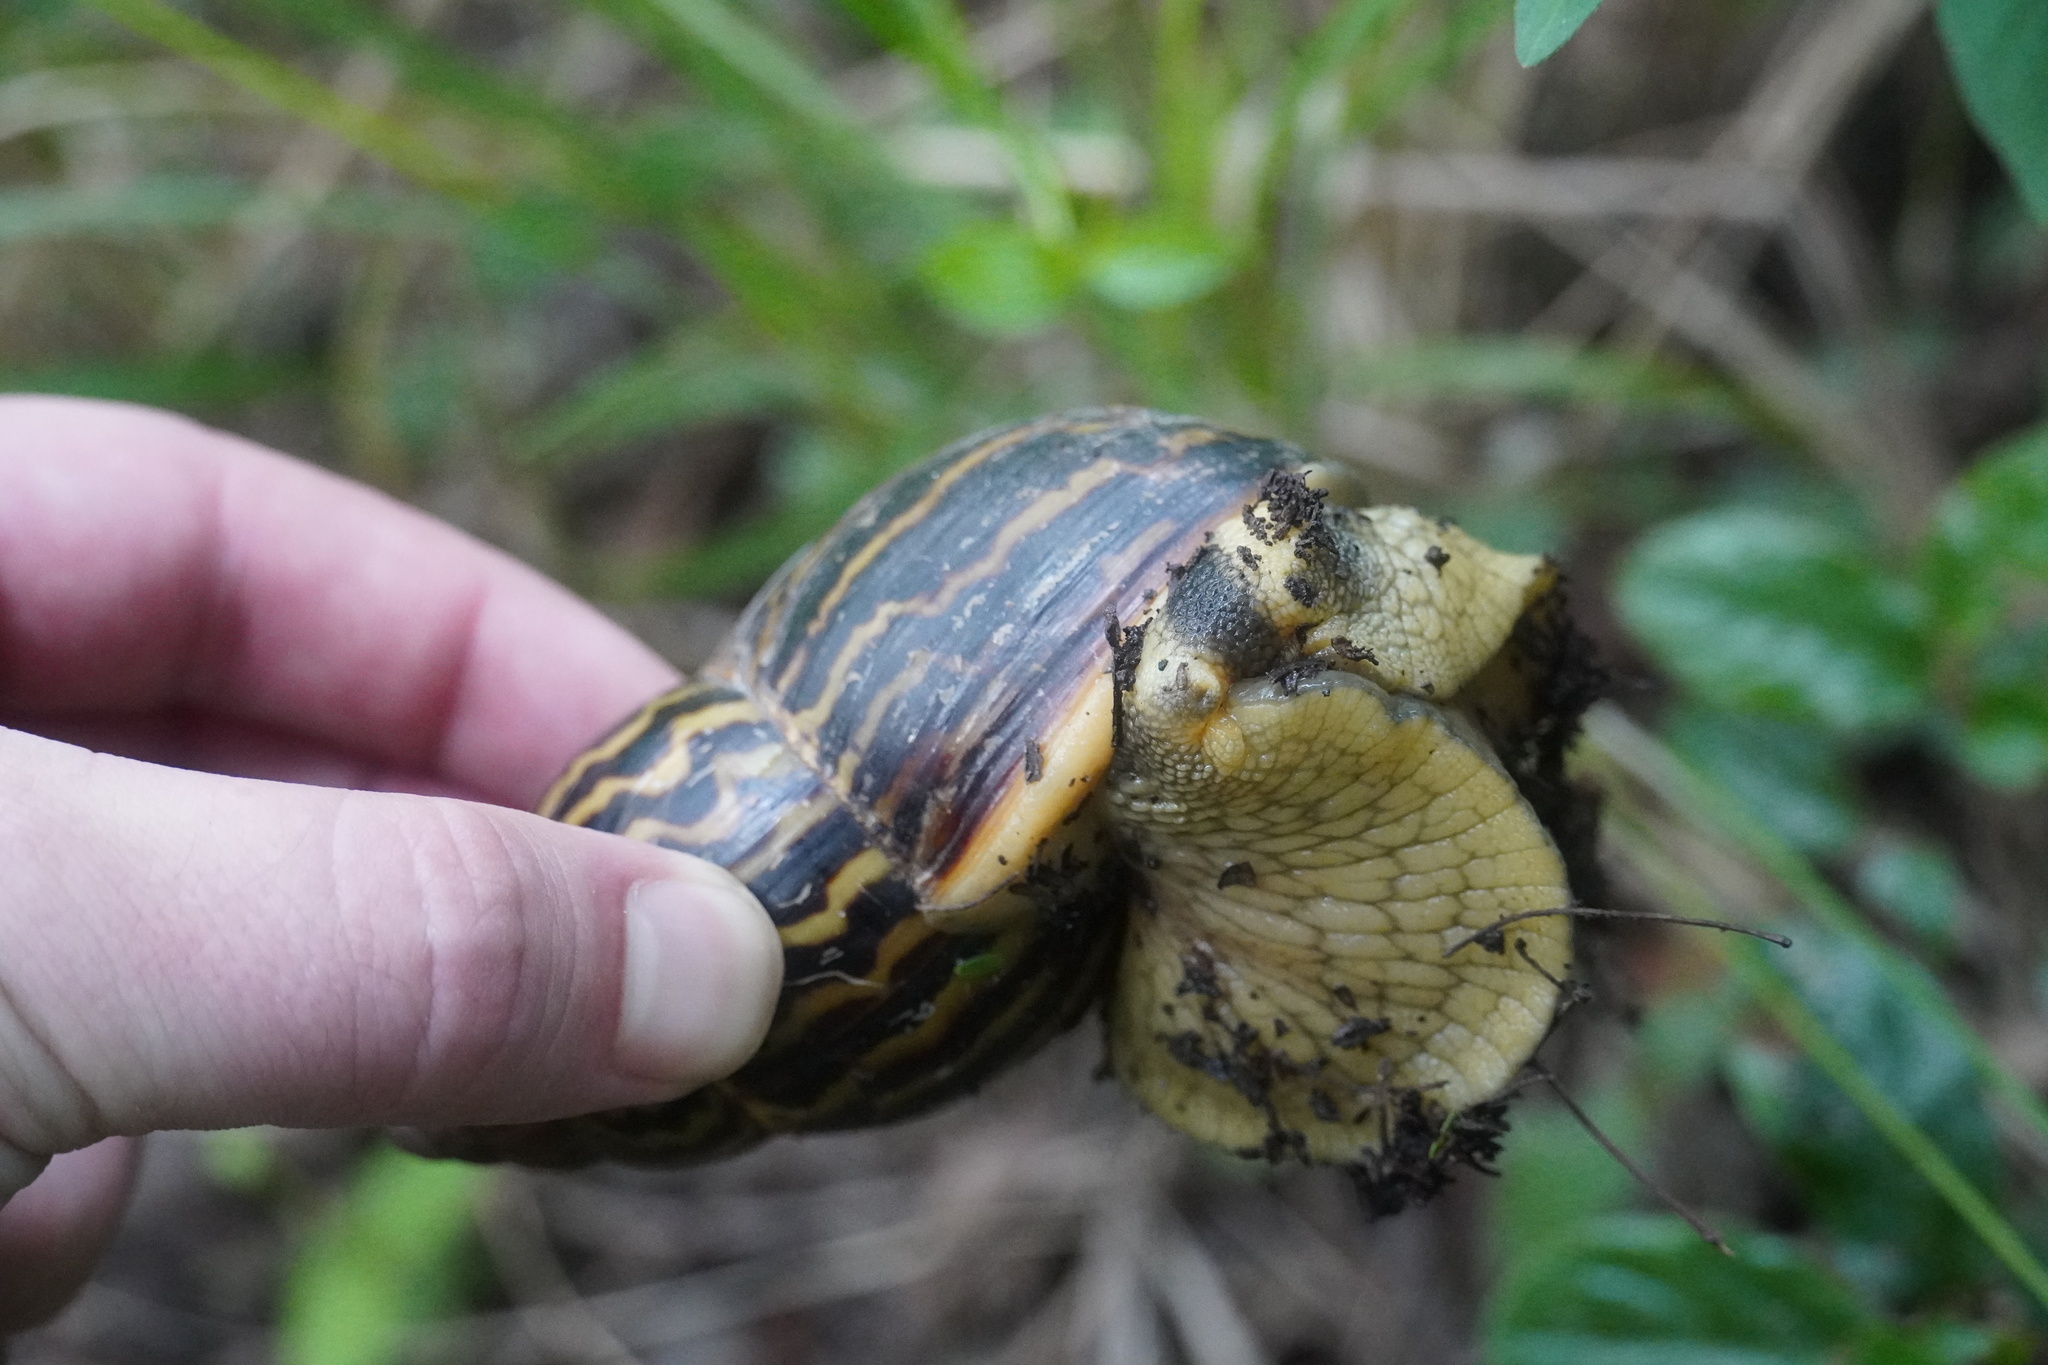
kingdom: Animalia
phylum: Mollusca
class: Gastropoda
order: Stylommatophora
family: Achatinidae
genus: Cochlitoma
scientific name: Cochlitoma zebra
